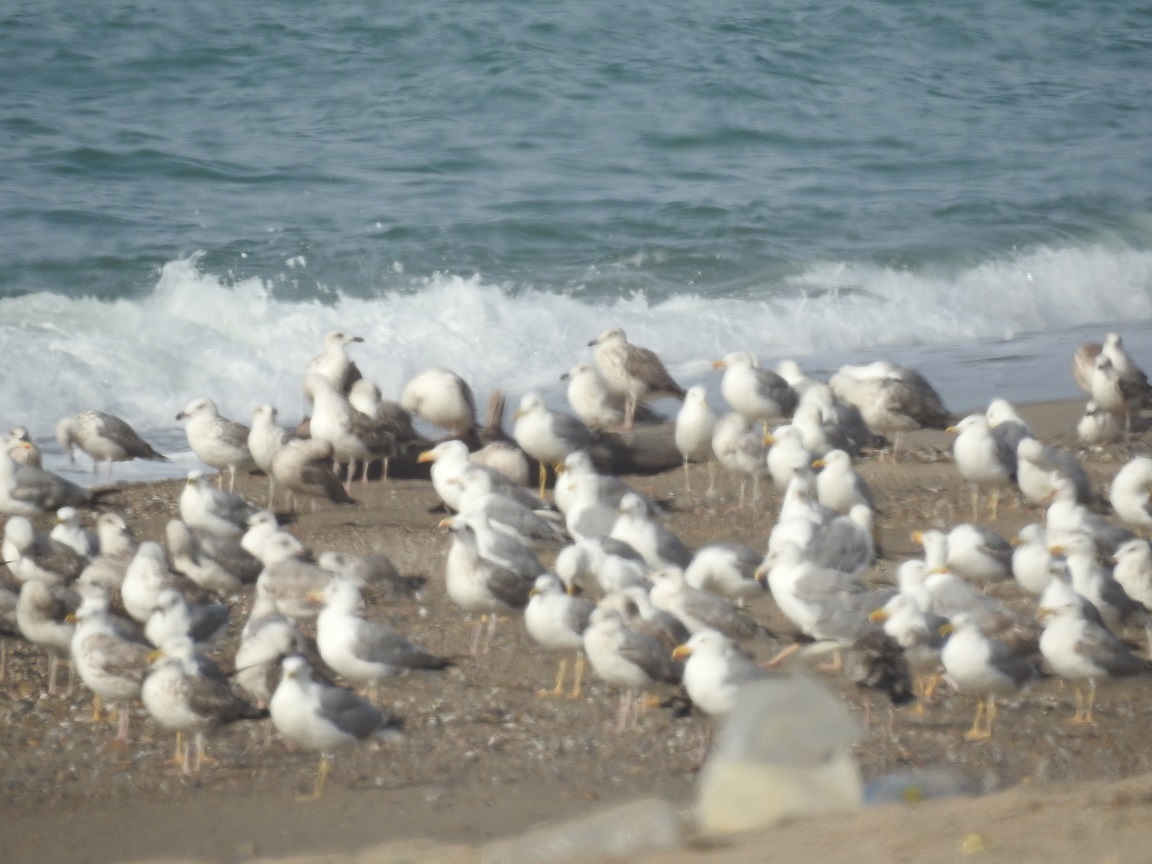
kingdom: Animalia
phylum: Chordata
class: Aves
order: Charadriiformes
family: Laridae
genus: Larus
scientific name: Larus michahellis
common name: Yellow-legged gull
